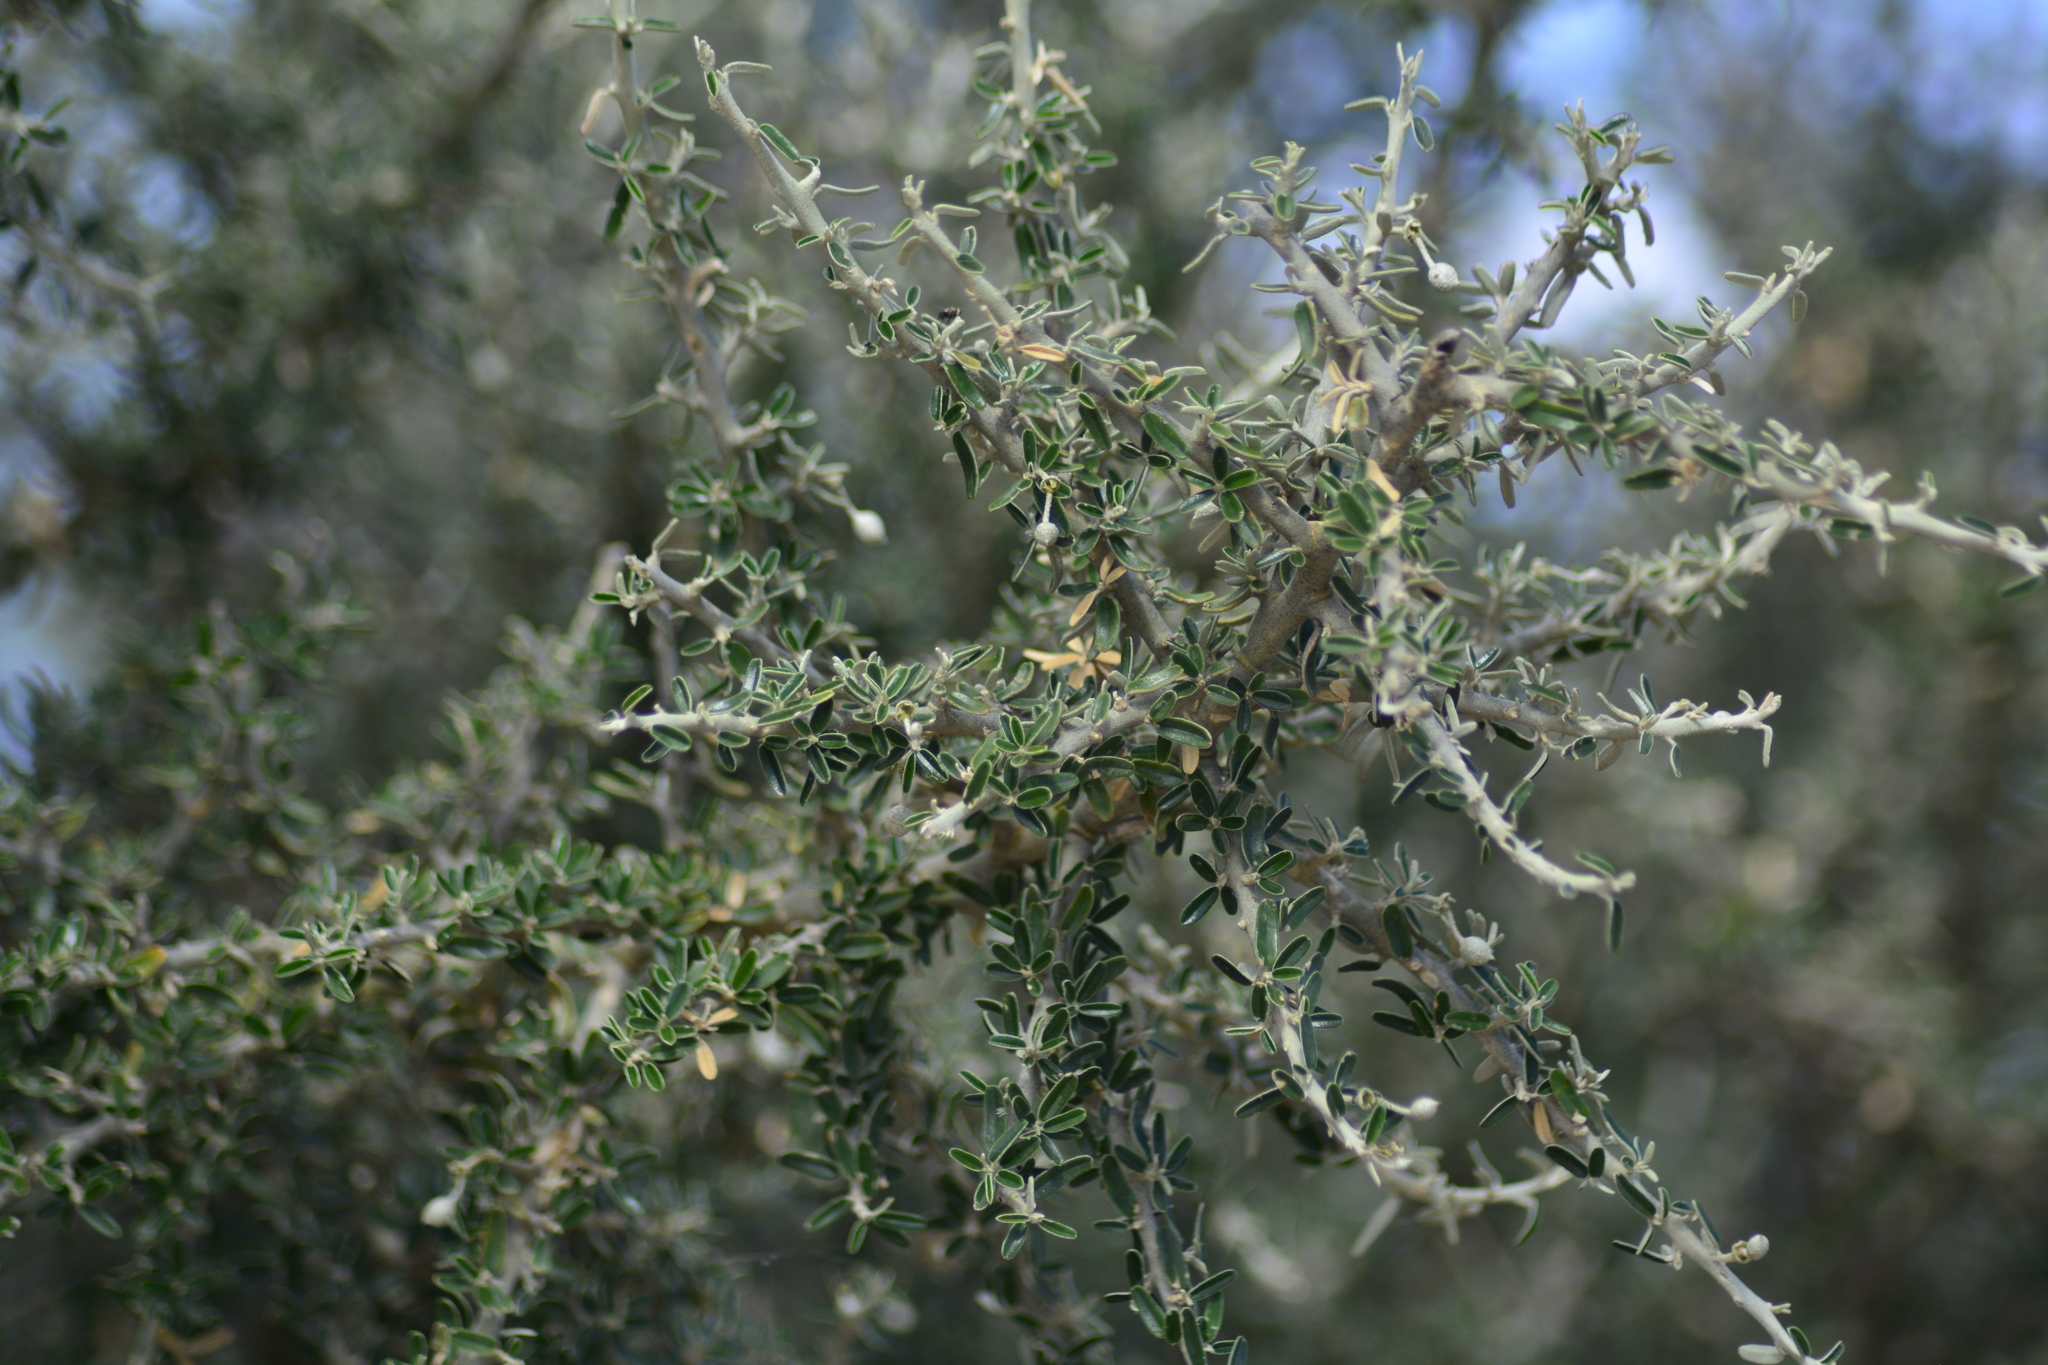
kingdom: Plantae
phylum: Tracheophyta
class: Magnoliopsida
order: Brassicales
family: Capparaceae
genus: Atamisquea
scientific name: Atamisquea emarginata
